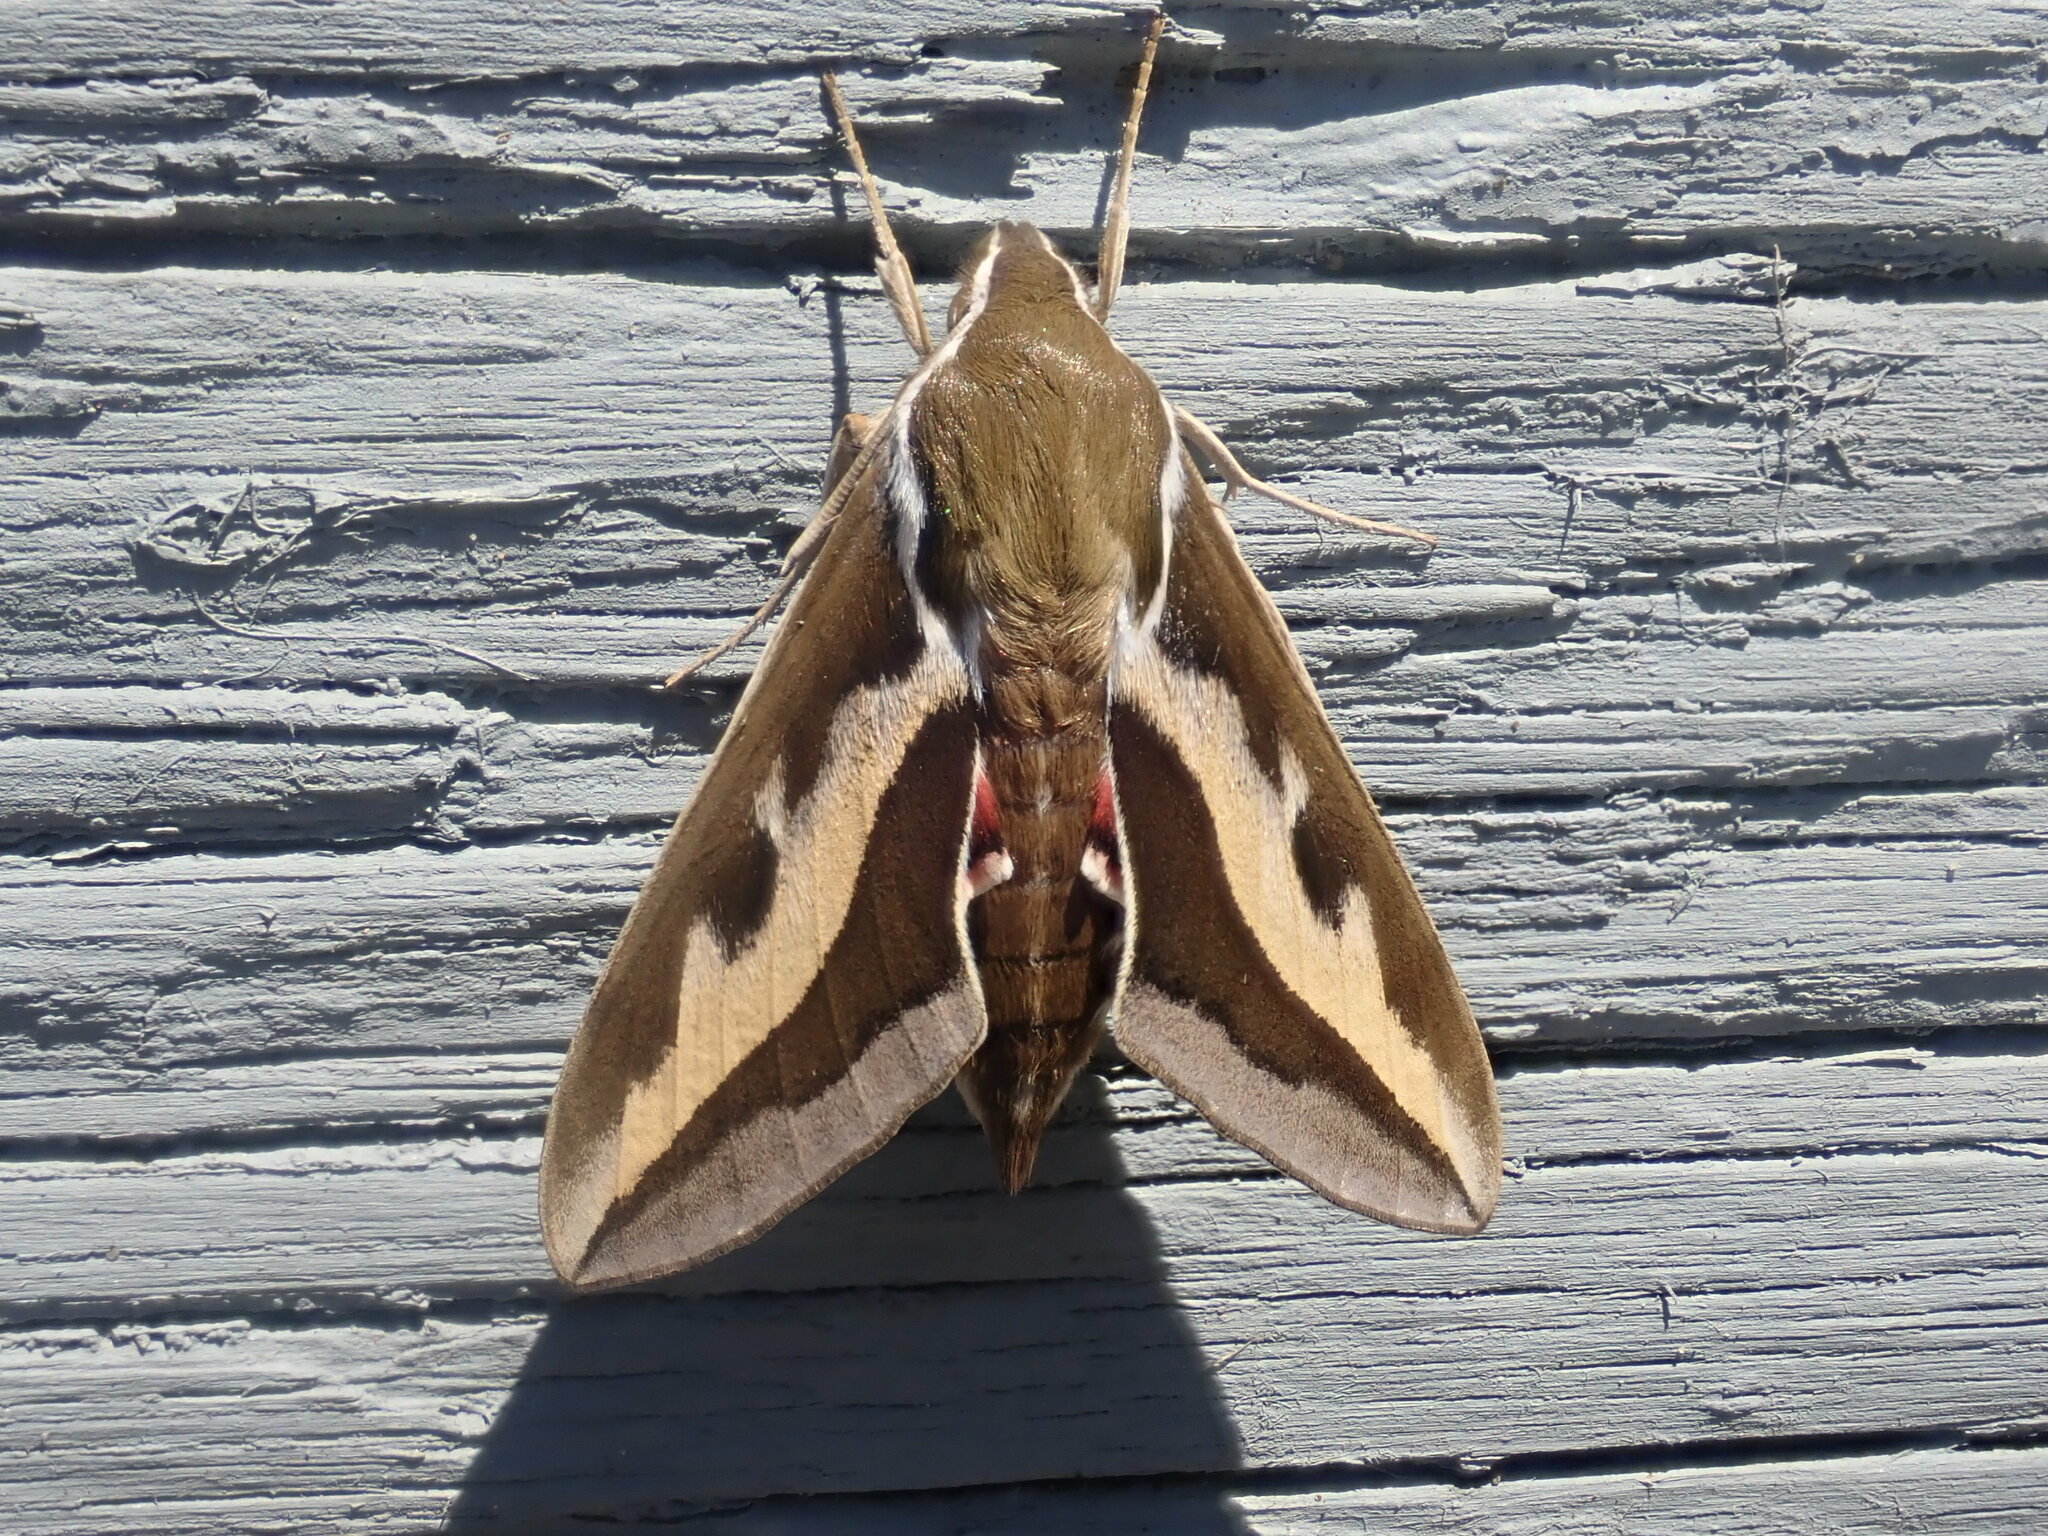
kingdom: Animalia
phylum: Arthropoda
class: Insecta
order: Lepidoptera
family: Sphingidae
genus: Hyles
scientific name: Hyles gallii
